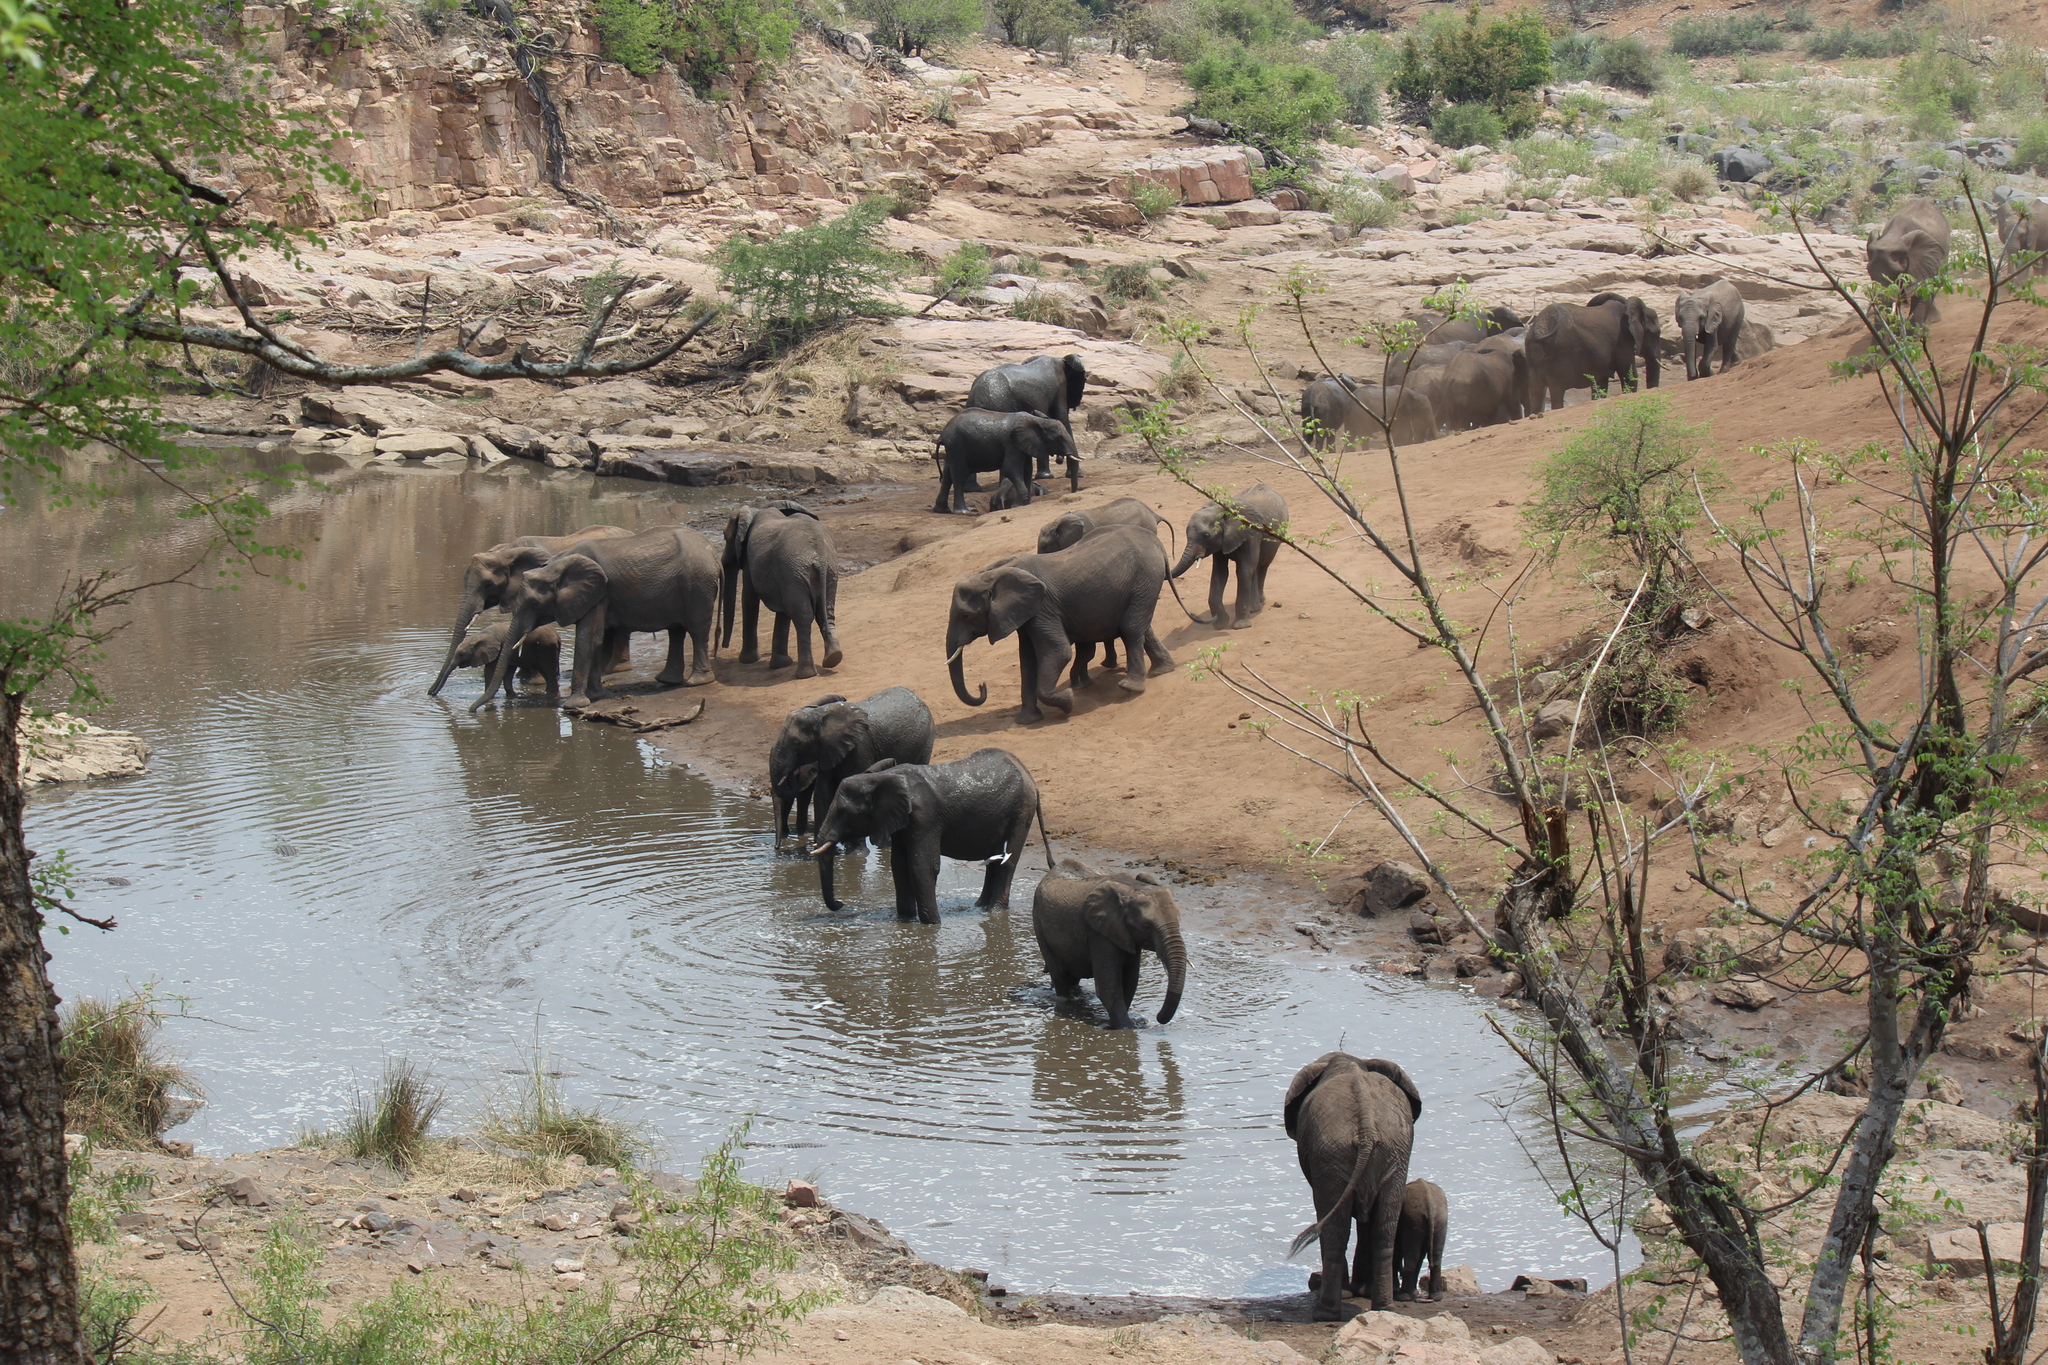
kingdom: Animalia
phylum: Chordata
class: Mammalia
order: Proboscidea
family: Elephantidae
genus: Loxodonta
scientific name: Loxodonta africana
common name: African elephant
